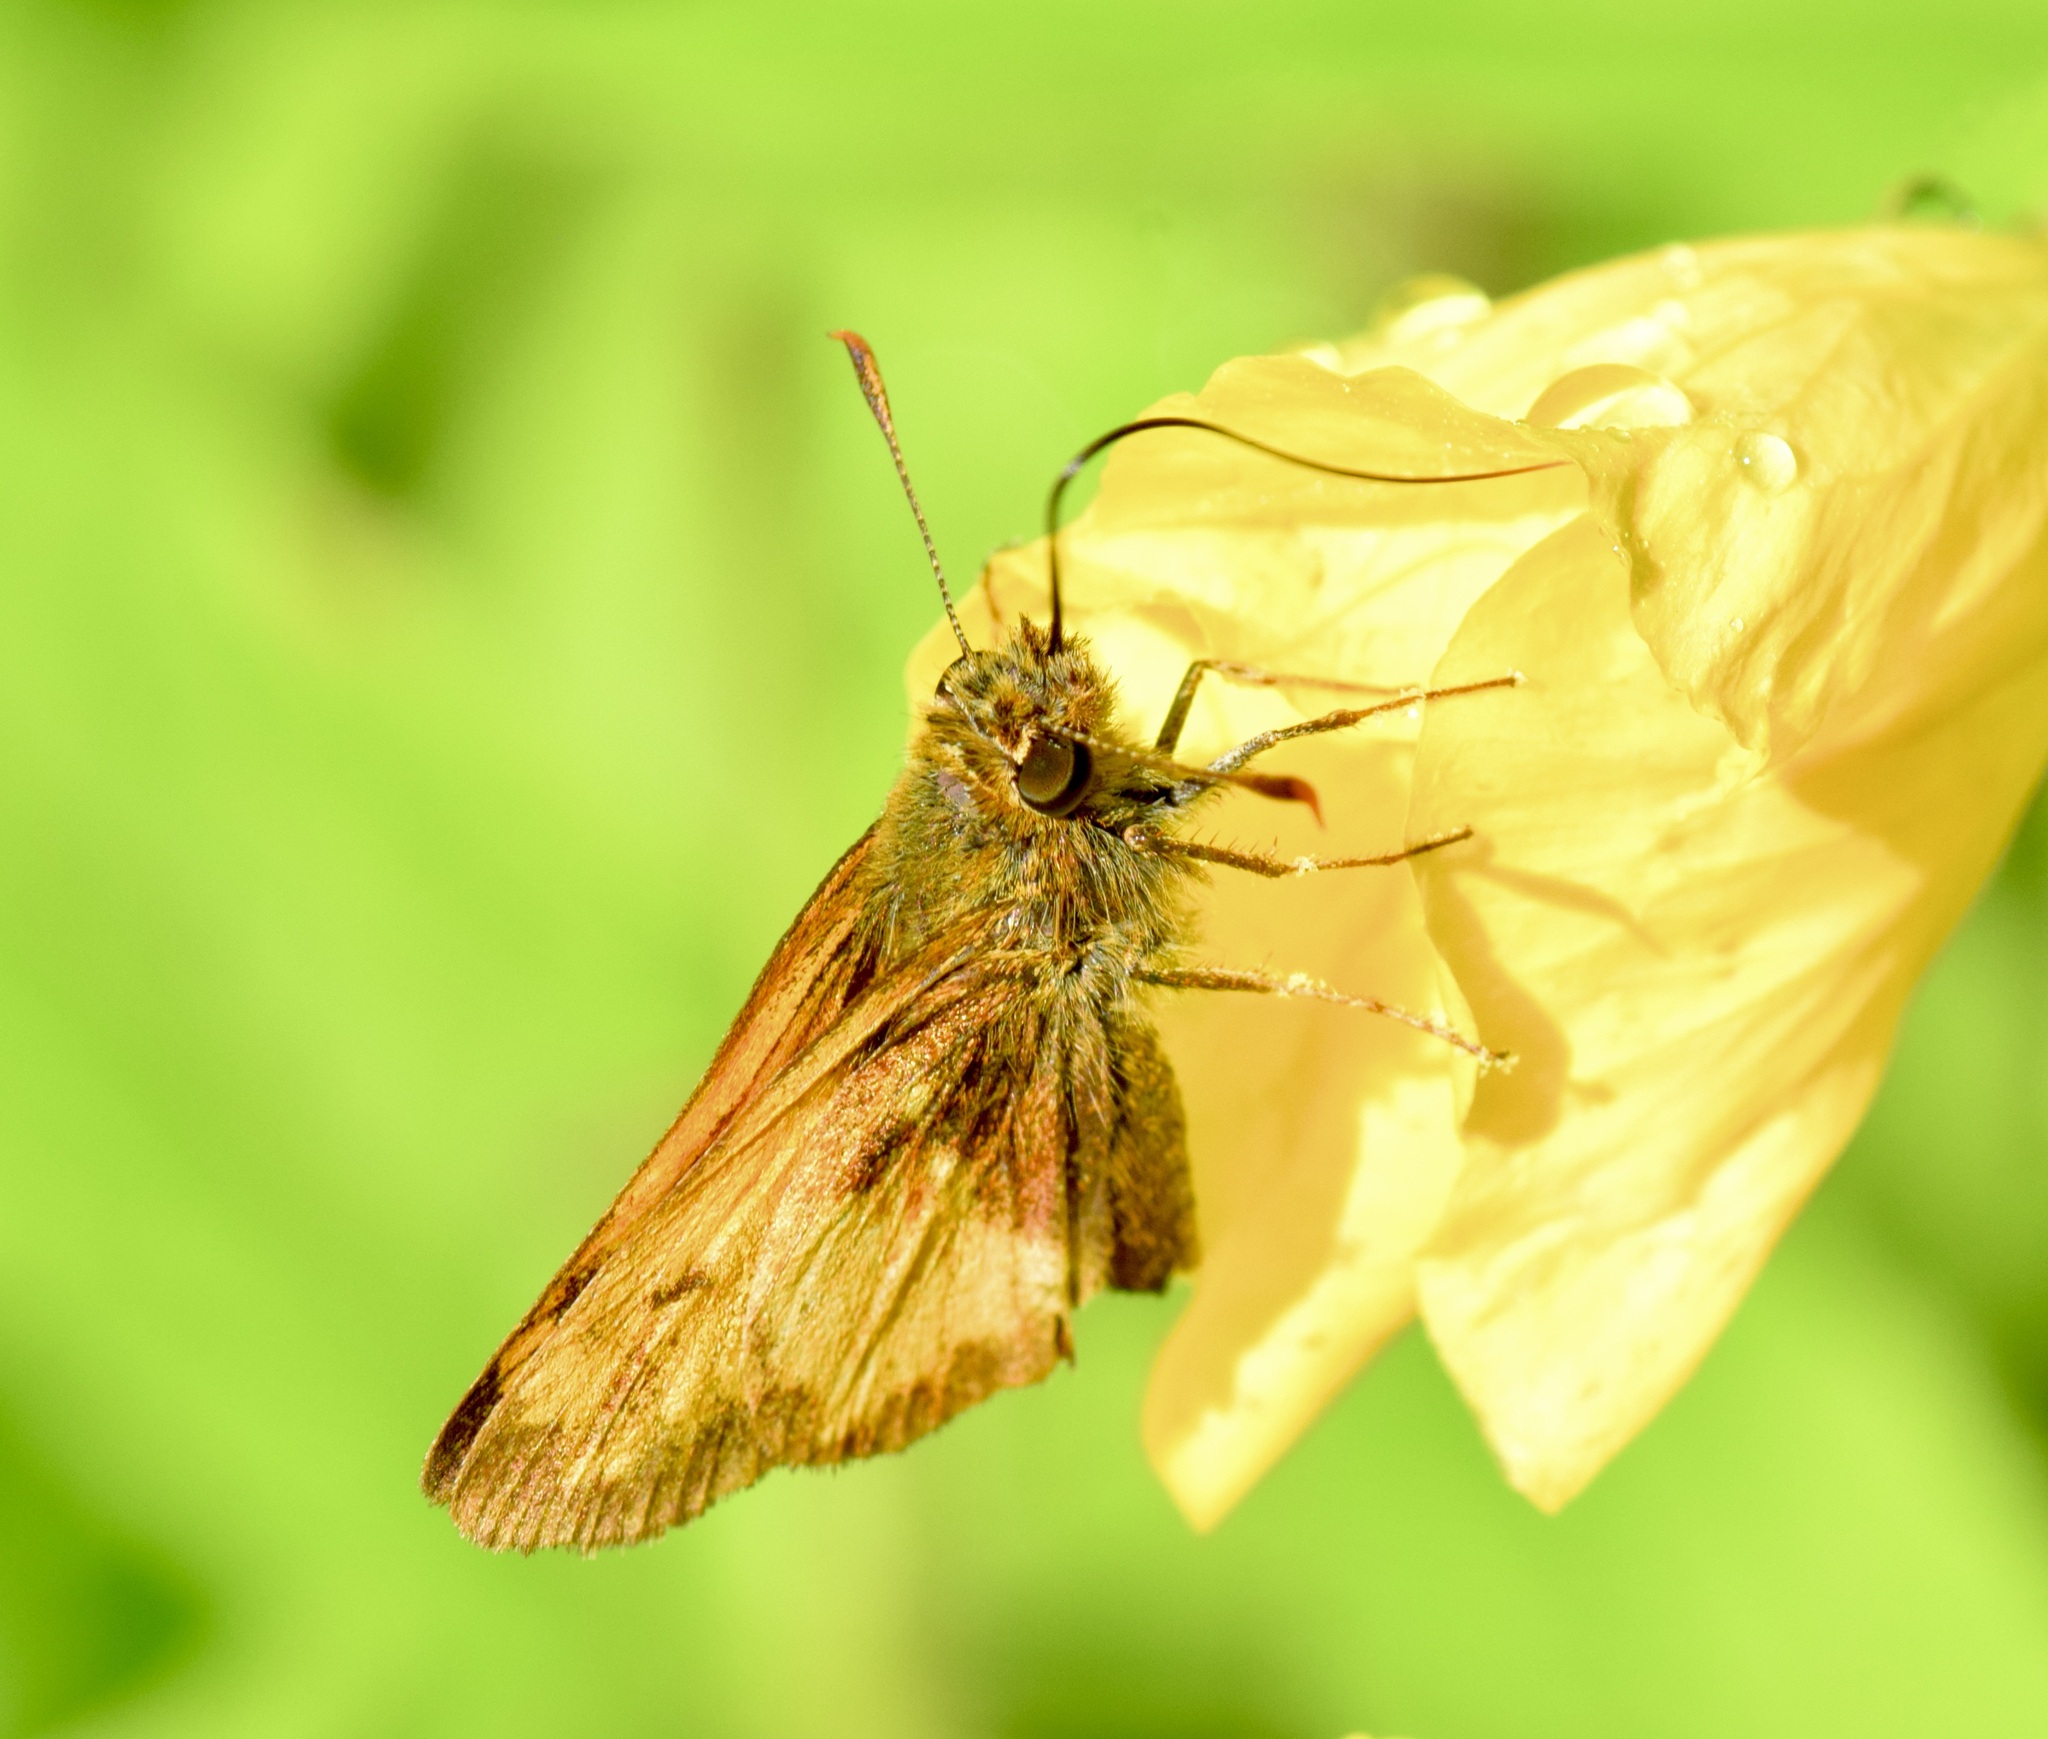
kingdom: Animalia
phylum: Arthropoda
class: Insecta
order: Lepidoptera
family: Hesperiidae
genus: Lon
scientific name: Lon hobomok
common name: Hobomok skipper
